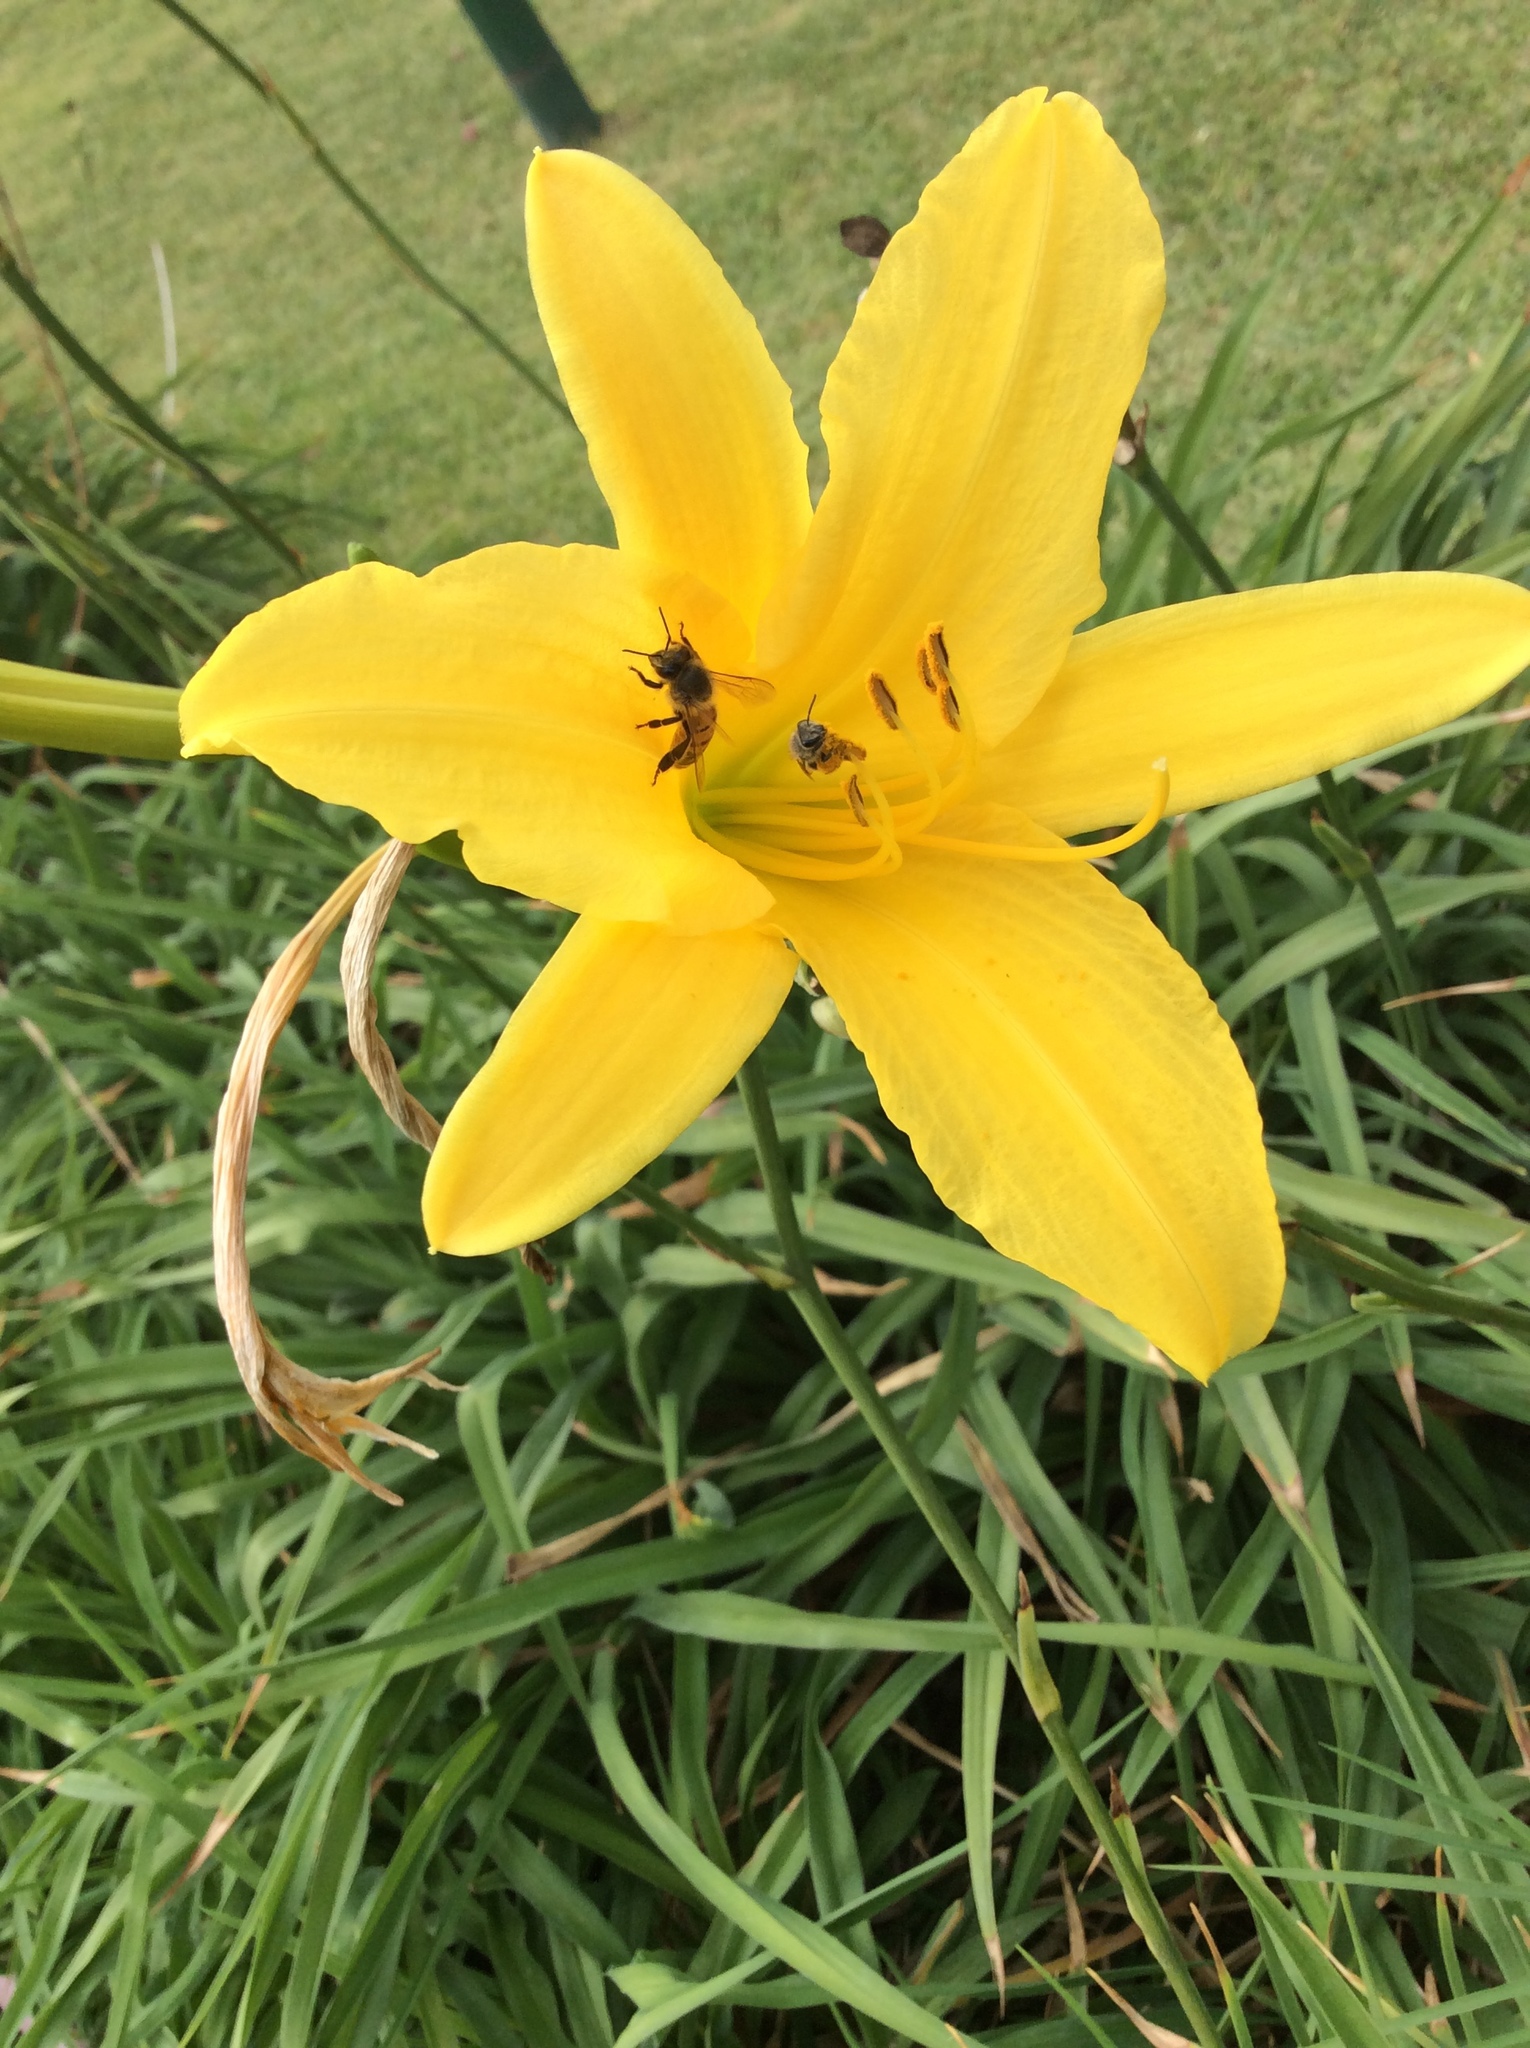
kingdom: Animalia
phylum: Arthropoda
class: Insecta
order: Hymenoptera
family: Apidae
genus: Apis
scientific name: Apis mellifera
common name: Honey bee
